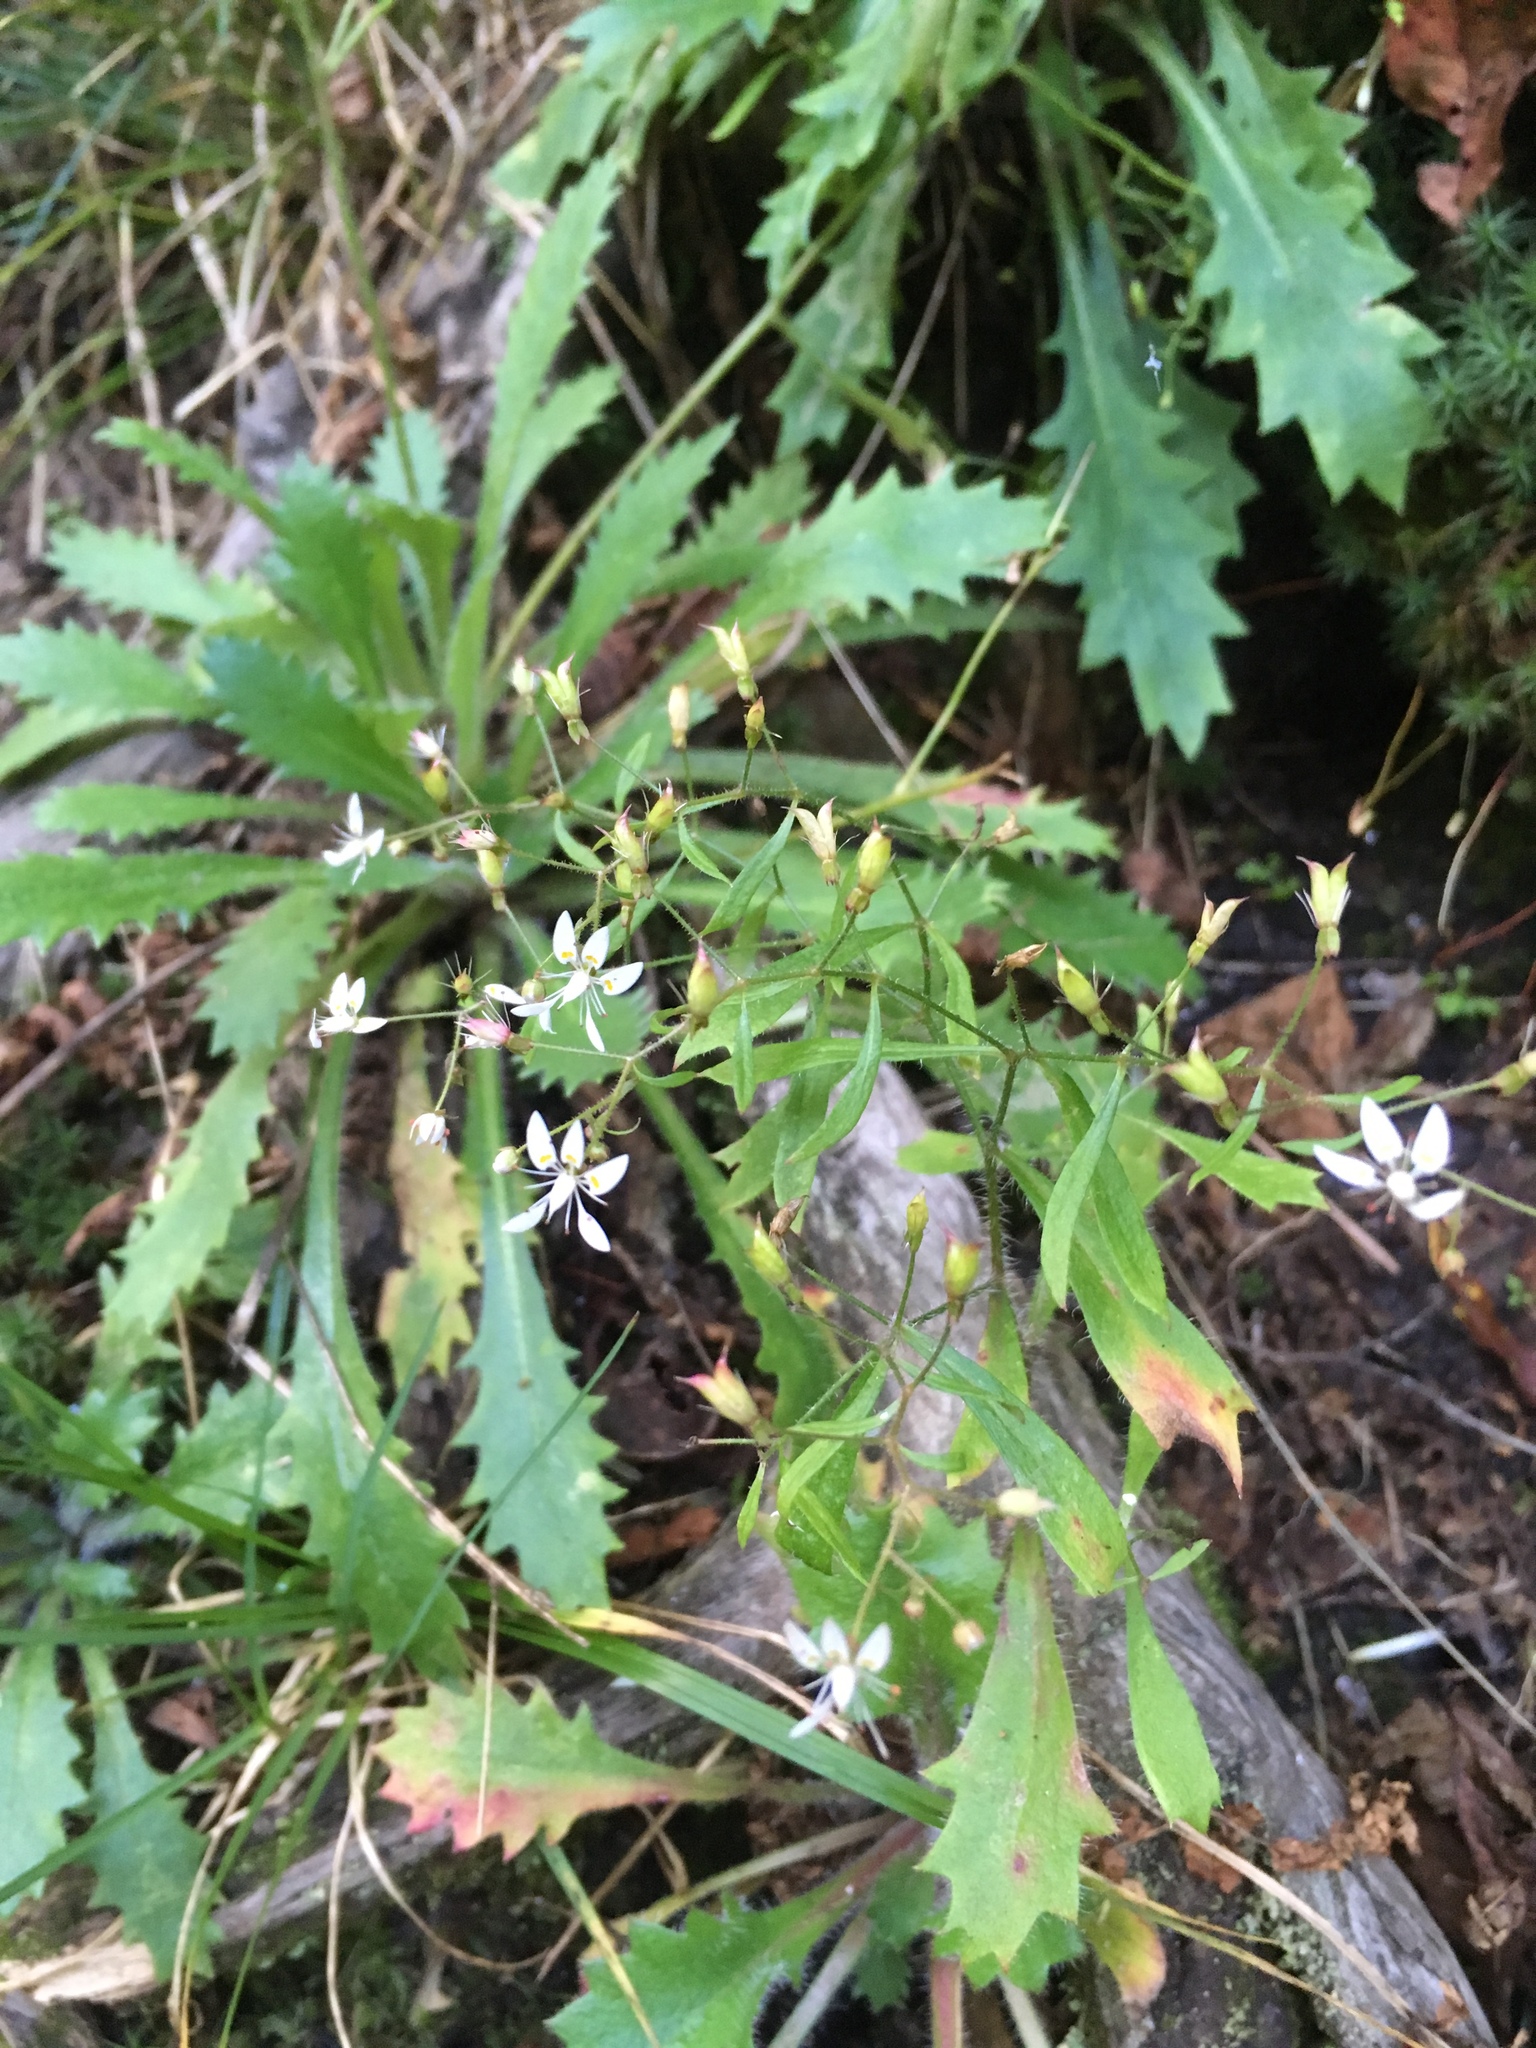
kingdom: Plantae
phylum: Tracheophyta
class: Magnoliopsida
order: Saxifragales
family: Saxifragaceae
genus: Micranthes
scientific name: Micranthes petiolaris
